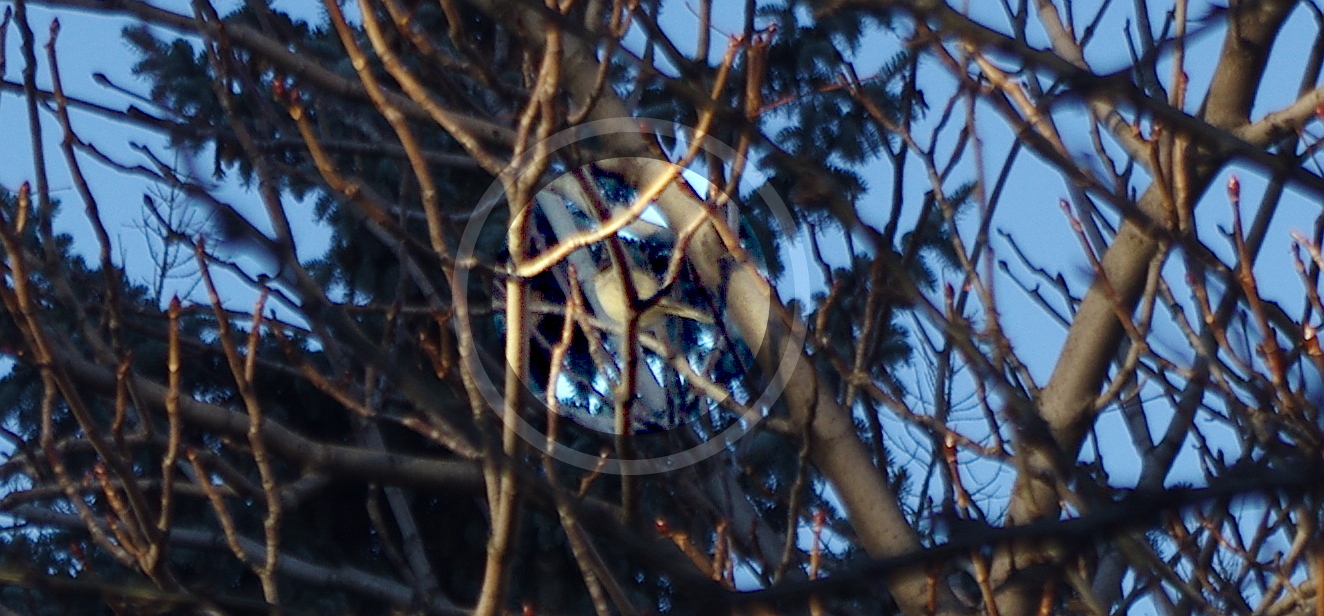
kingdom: Animalia
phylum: Chordata
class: Aves
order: Passeriformes
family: Sylviidae
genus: Sylvia
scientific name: Sylvia atricapilla
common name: Eurasian blackcap
